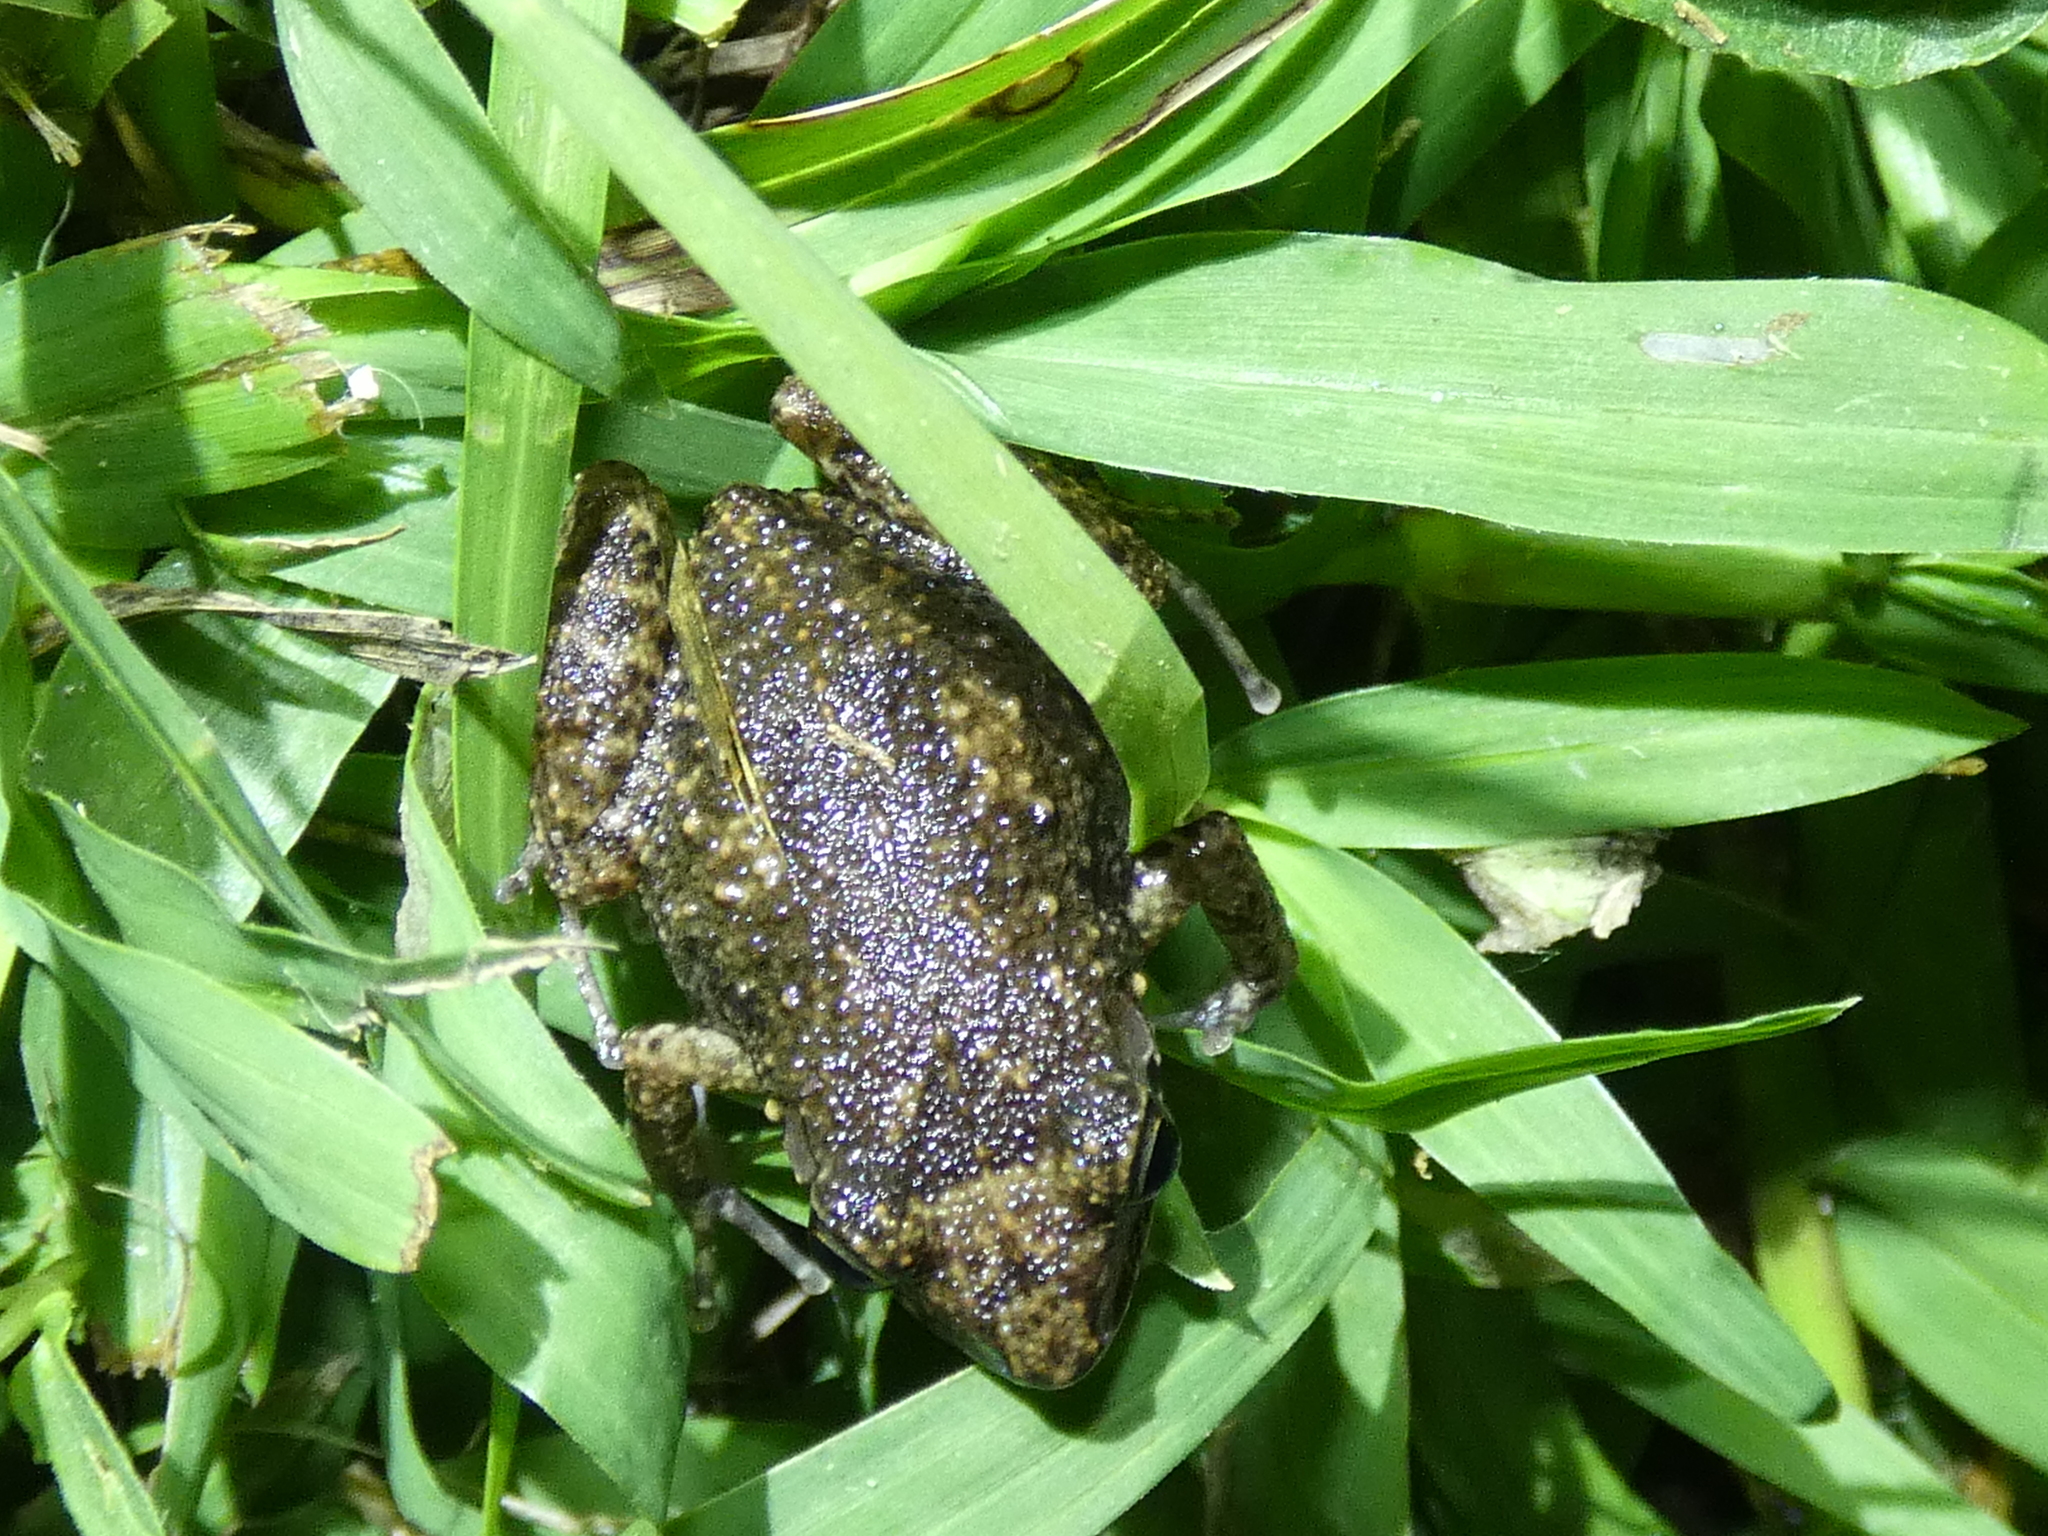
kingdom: Animalia
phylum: Chordata
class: Amphibia
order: Anura
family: Eleutherodactylidae
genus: Eleutherodactylus
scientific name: Eleutherodactylus planirostris
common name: Greenhouse frog
